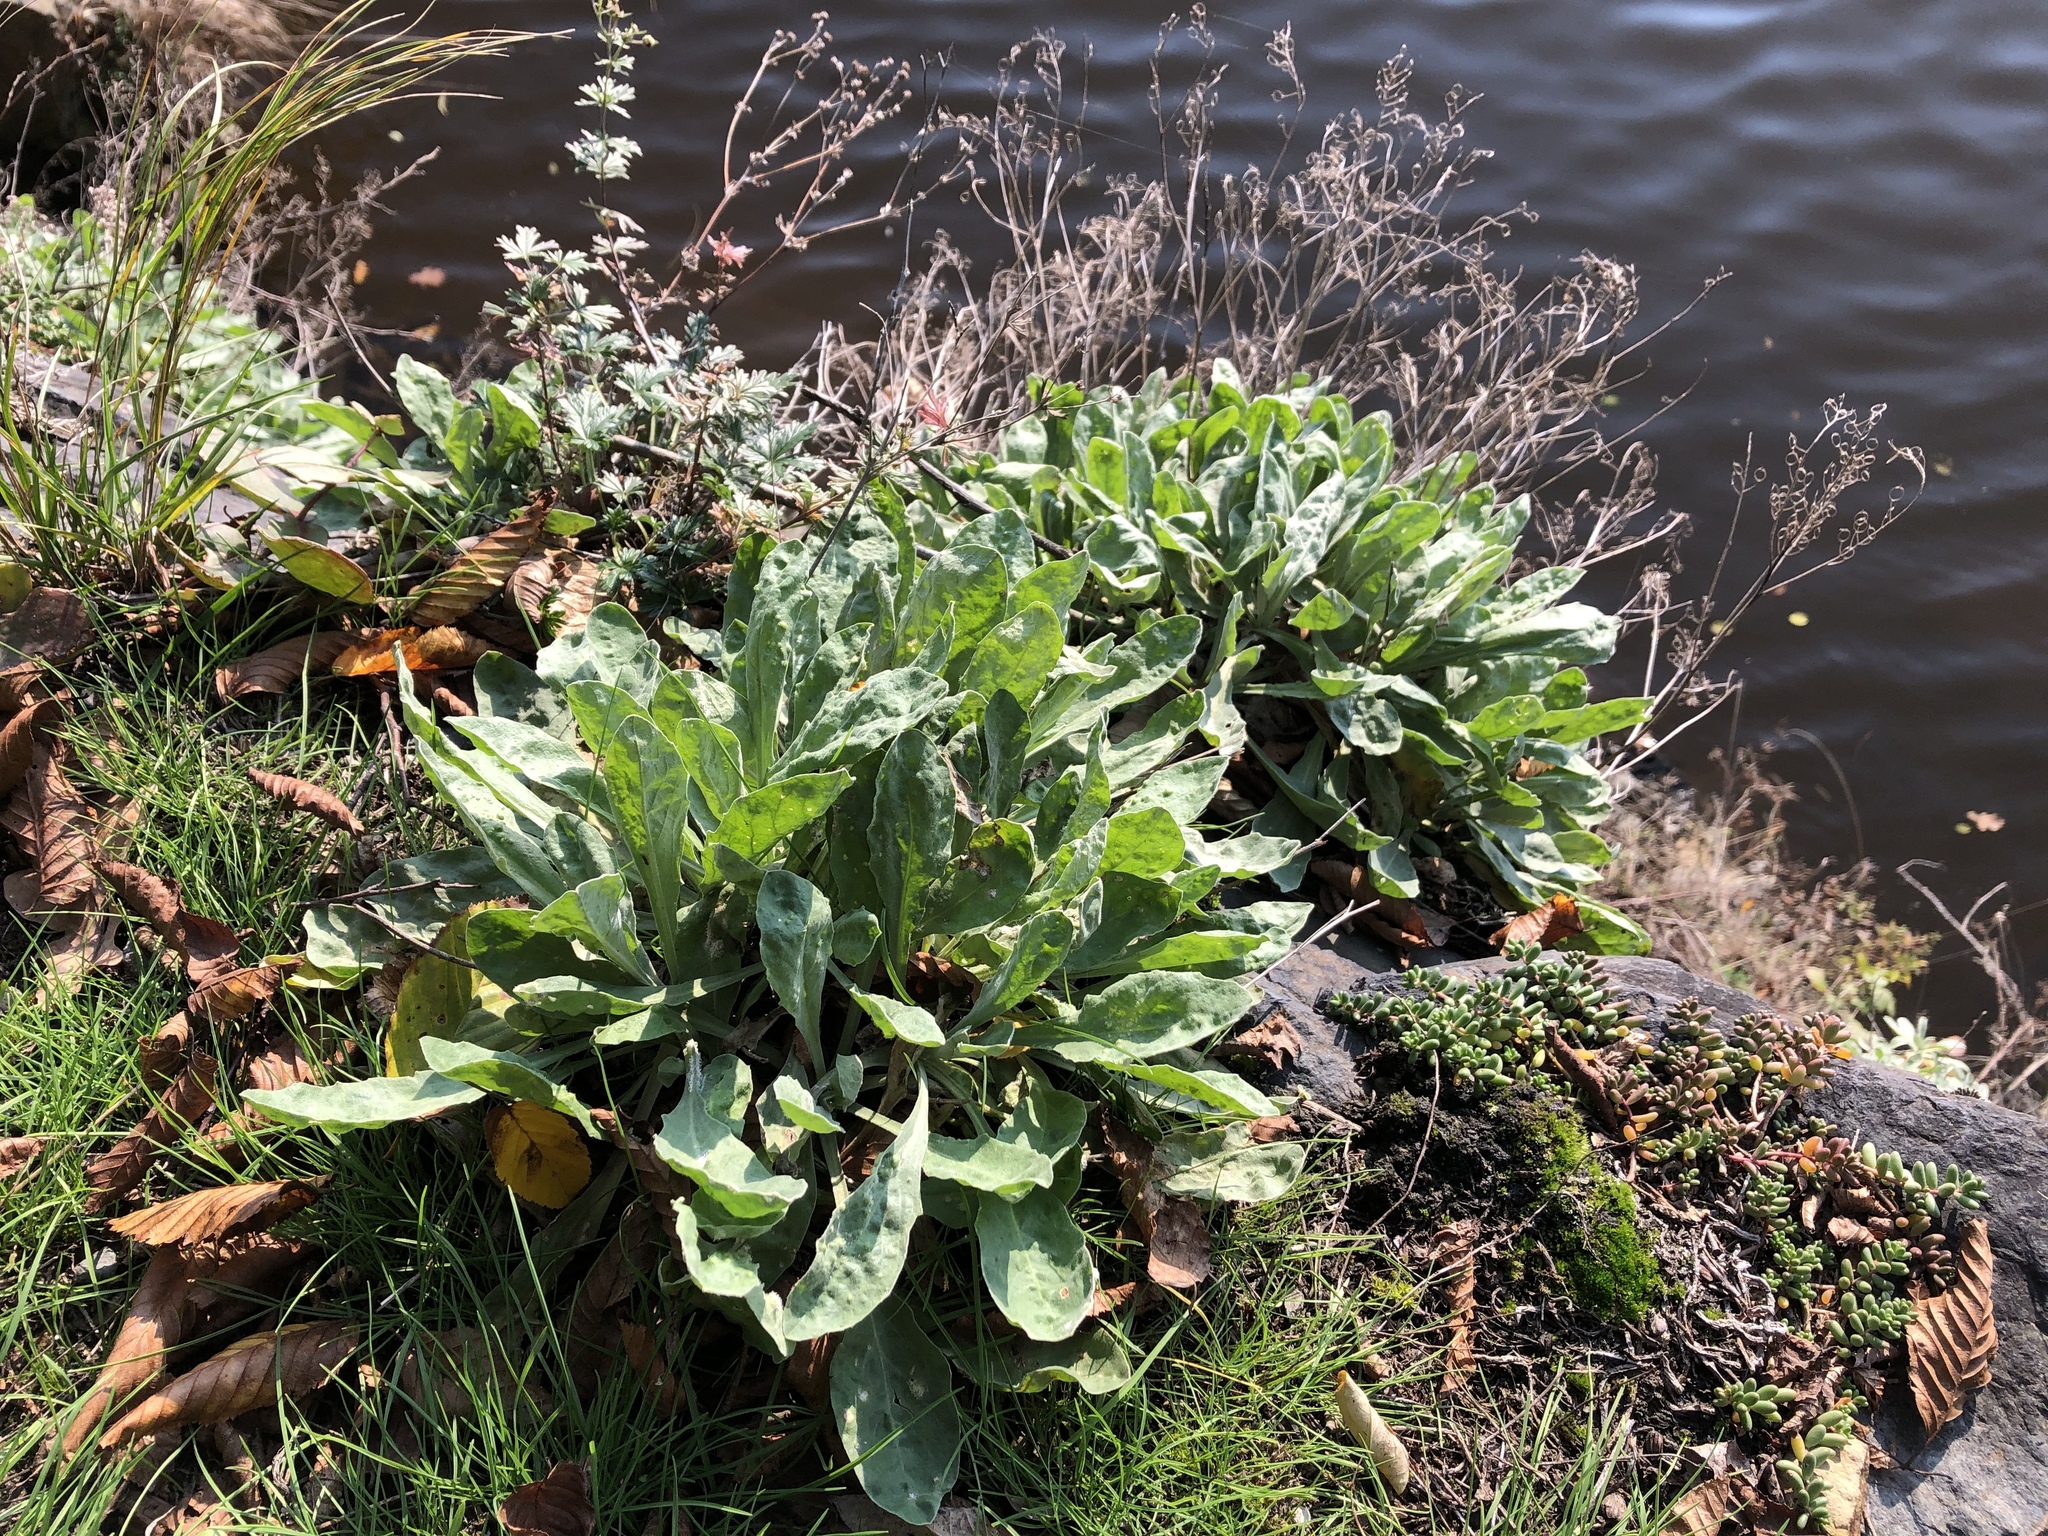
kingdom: Plantae
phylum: Tracheophyta
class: Magnoliopsida
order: Brassicales
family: Brassicaceae
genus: Aurinia
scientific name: Aurinia saxatilis
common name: Golden-tuft alyssum
